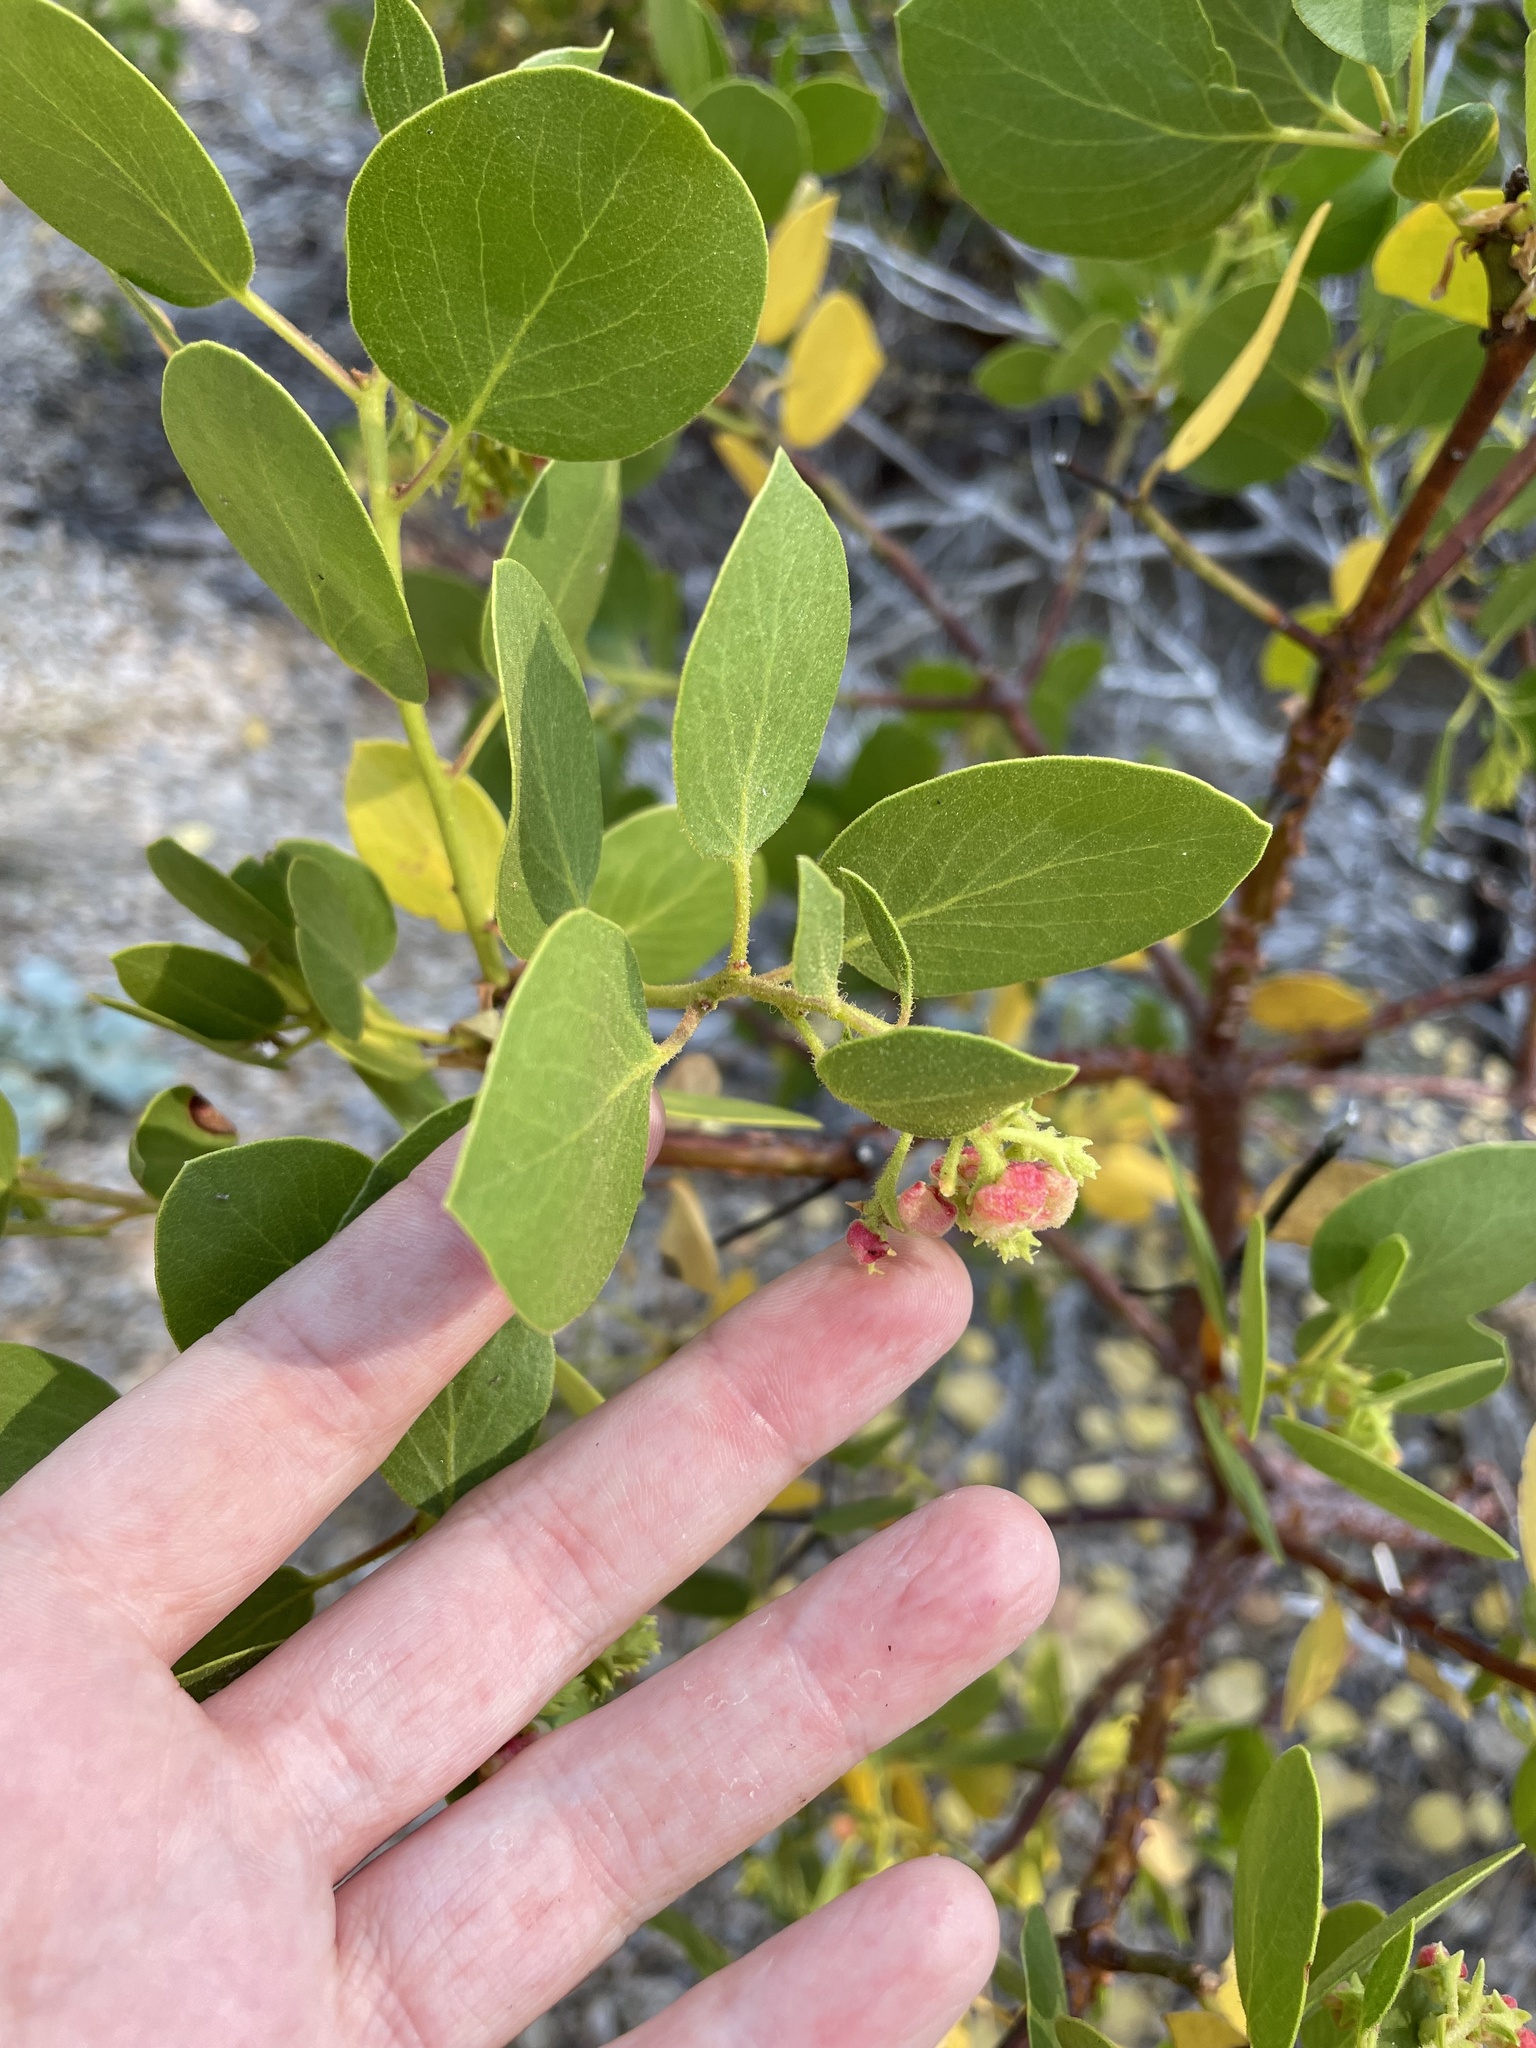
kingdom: Plantae
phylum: Tracheophyta
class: Magnoliopsida
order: Ericales
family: Ericaceae
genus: Arctostaphylos
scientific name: Arctostaphylos patula
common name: Green-leaf manzanita
